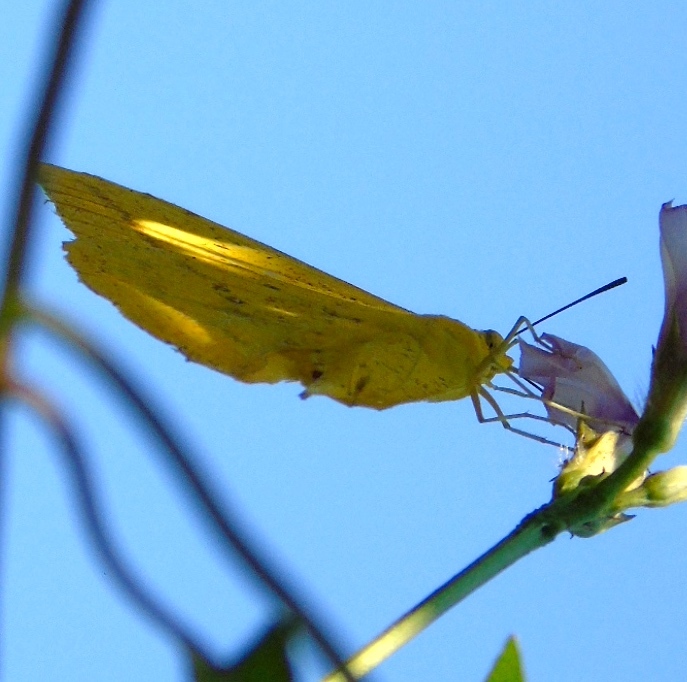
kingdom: Animalia
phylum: Arthropoda
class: Insecta
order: Lepidoptera
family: Pieridae
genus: Phoebis
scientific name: Phoebis agarithe
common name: Large orange sulphur
